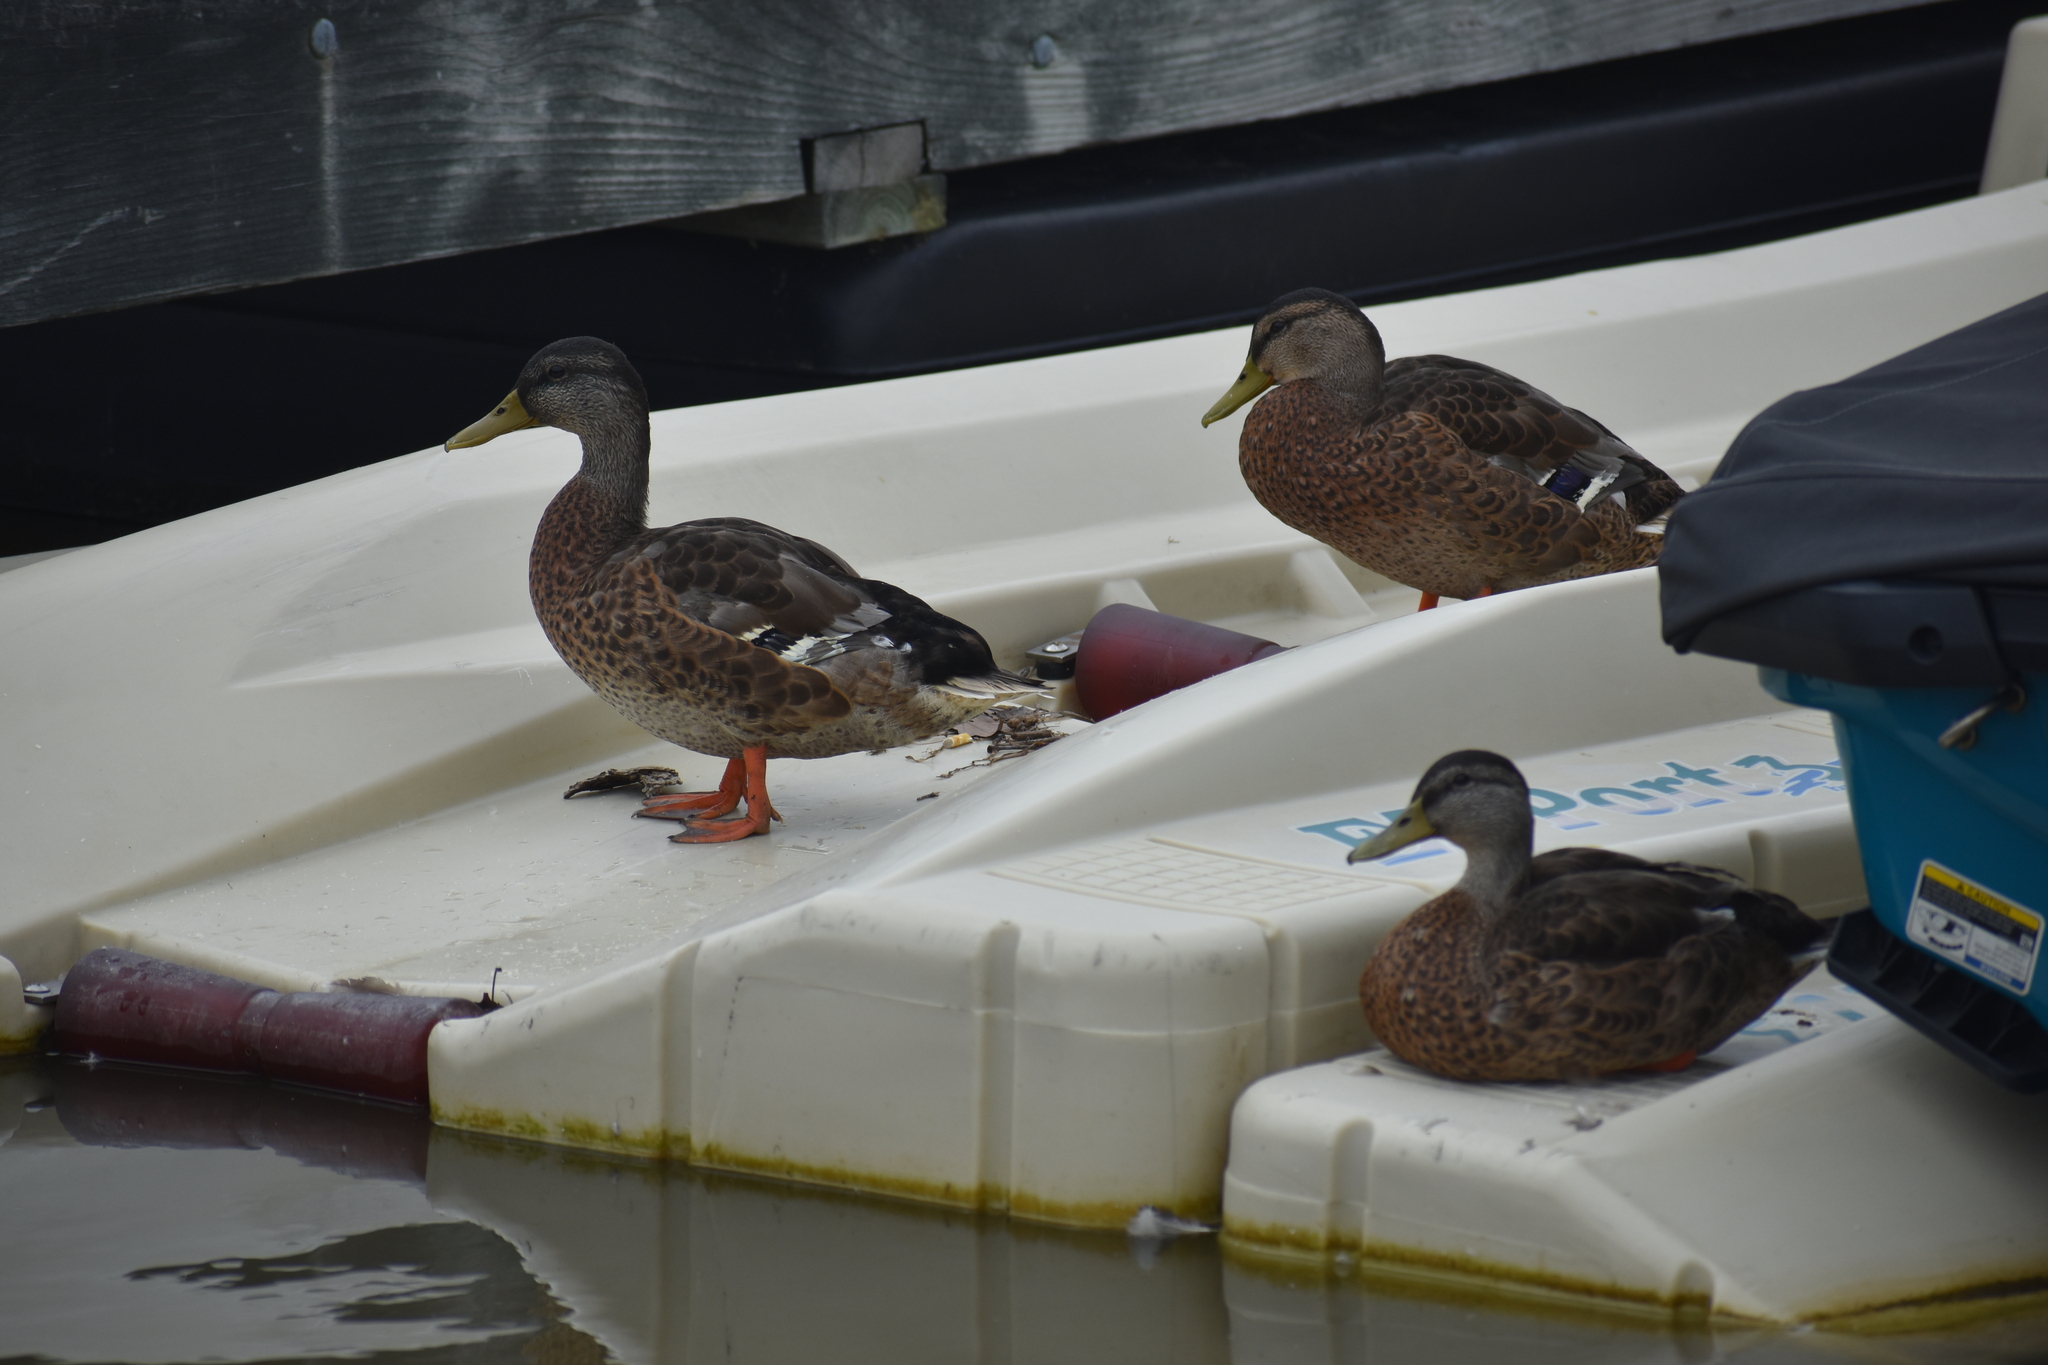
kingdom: Animalia
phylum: Chordata
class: Aves
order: Anseriformes
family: Anatidae
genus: Anas
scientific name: Anas platyrhynchos
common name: Mallard
